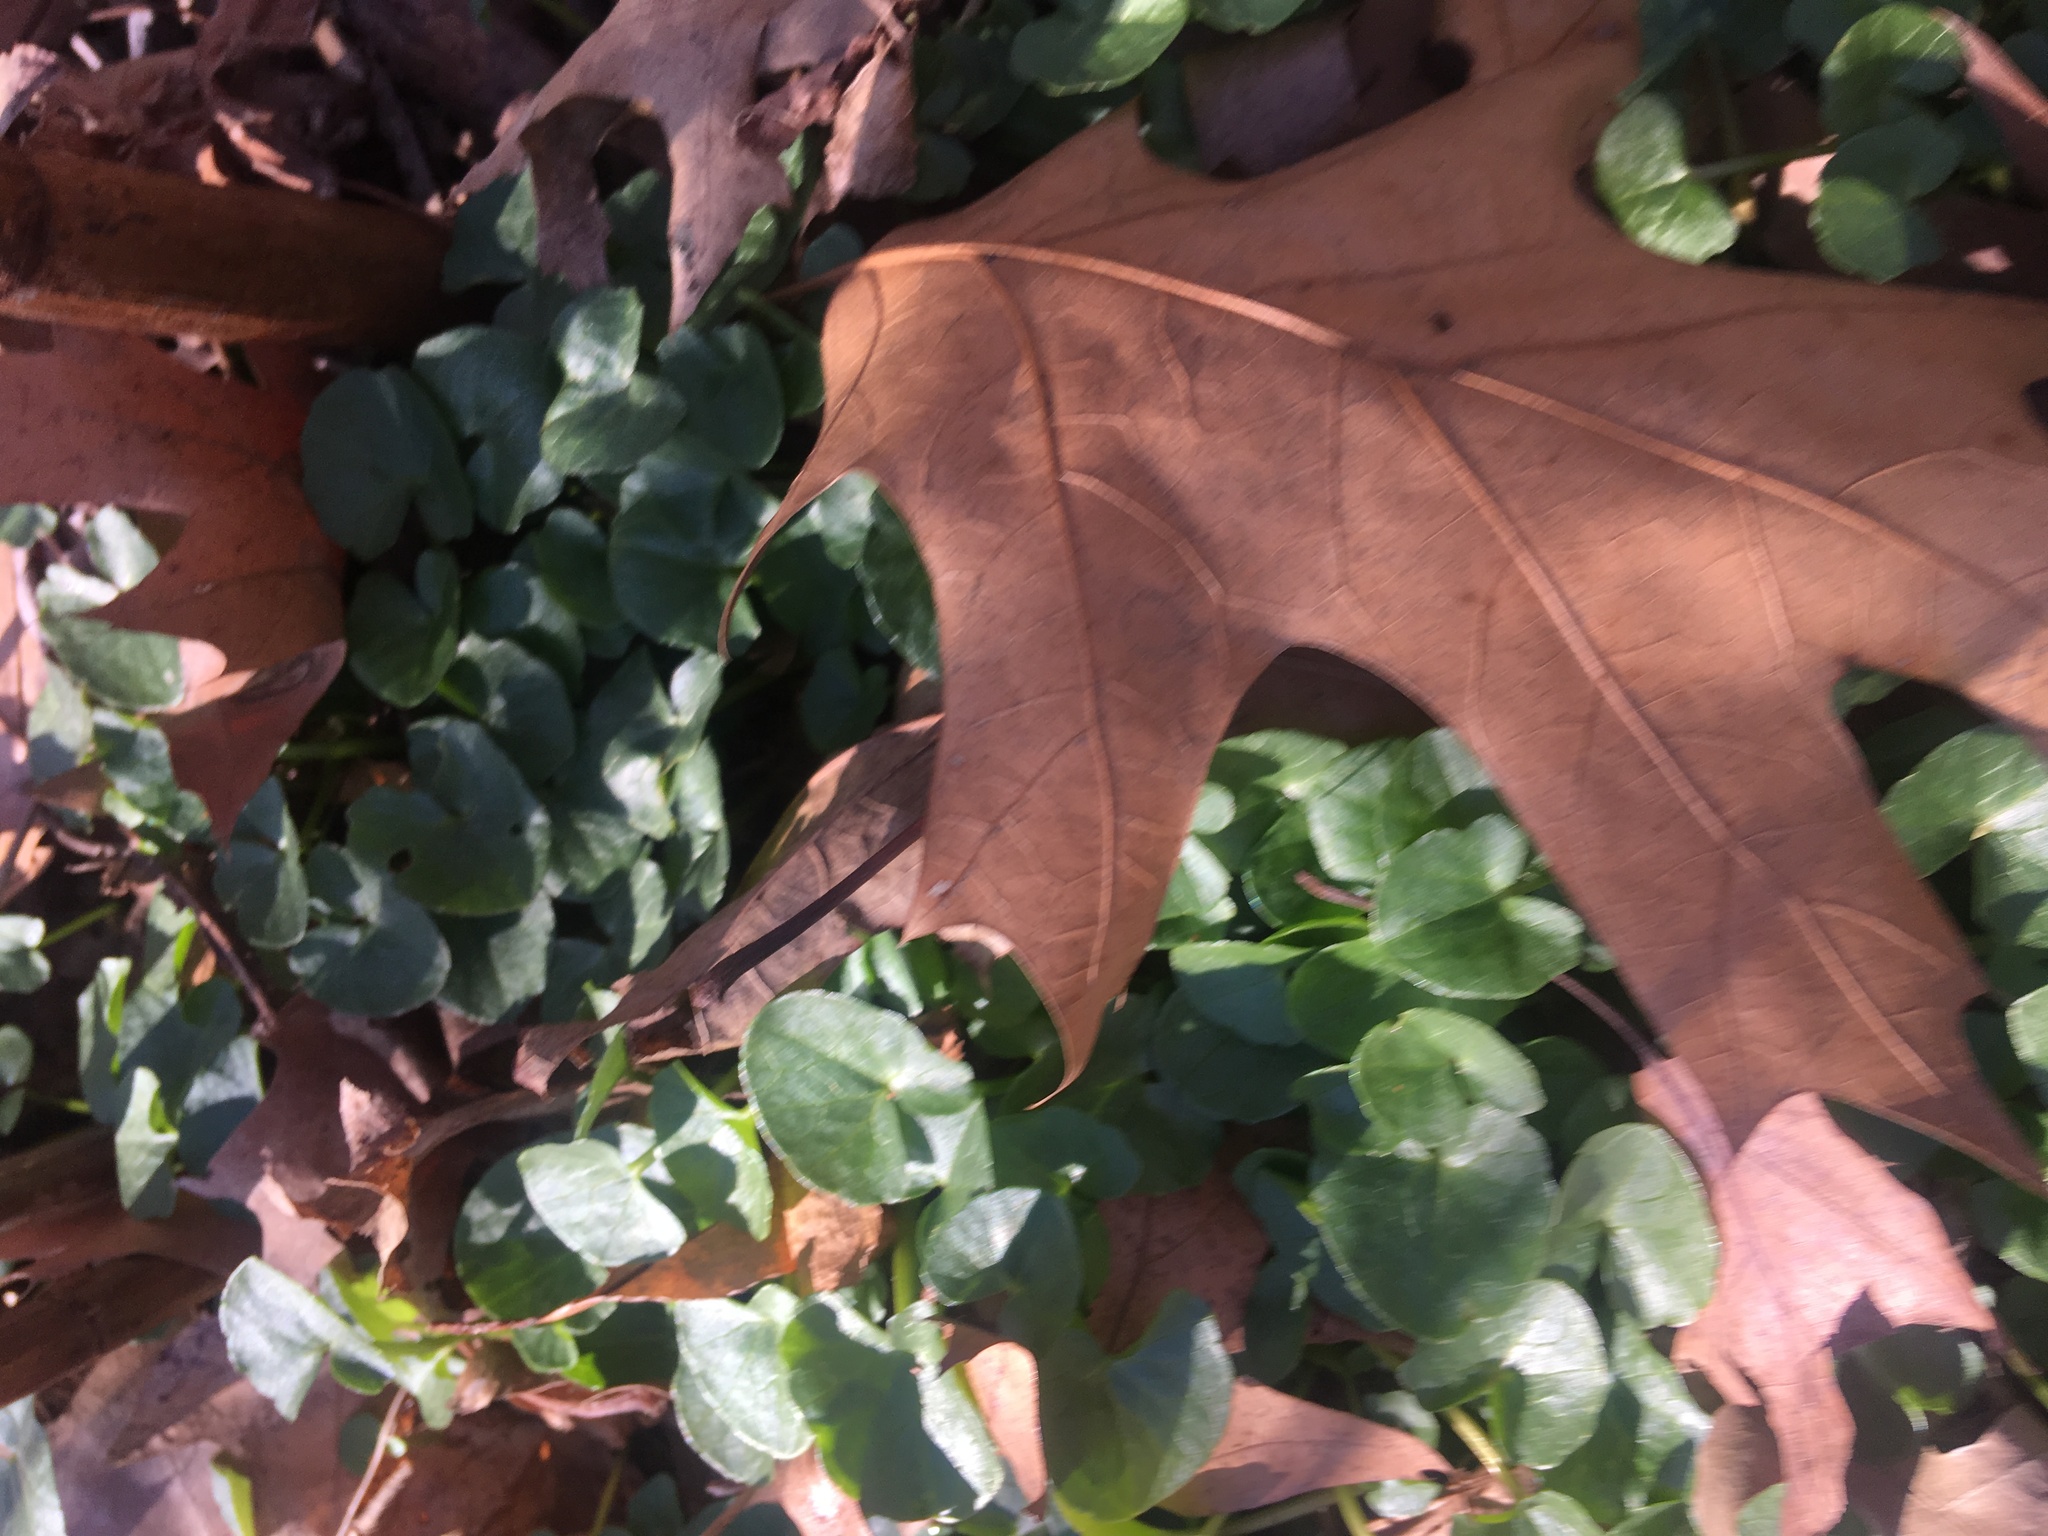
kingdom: Plantae
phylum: Tracheophyta
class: Magnoliopsida
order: Ranunculales
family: Ranunculaceae
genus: Ficaria
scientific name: Ficaria verna
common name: Lesser celandine
